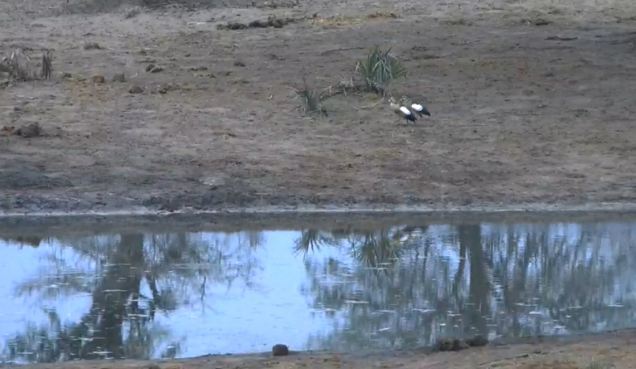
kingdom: Animalia
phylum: Chordata
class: Aves
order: Anseriformes
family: Anatidae
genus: Alopochen
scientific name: Alopochen aegyptiaca
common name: Egyptian goose
